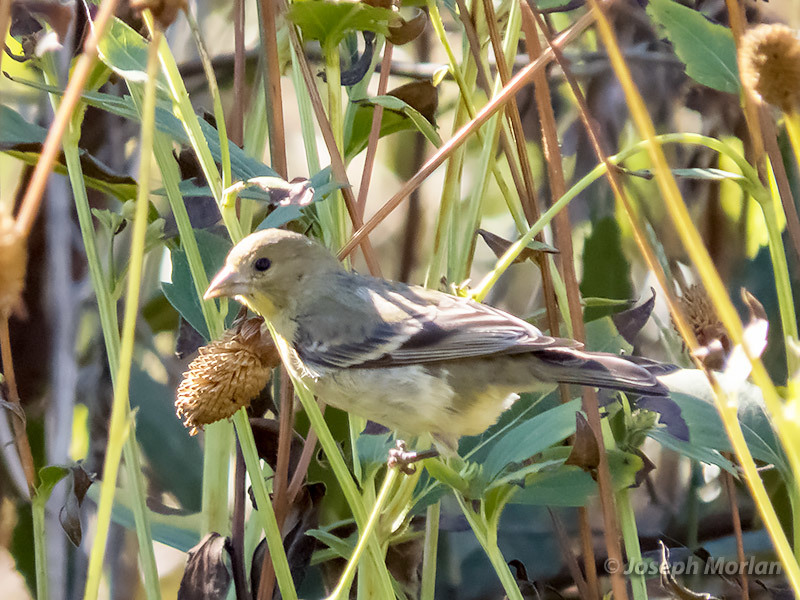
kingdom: Animalia
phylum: Chordata
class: Aves
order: Passeriformes
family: Fringillidae
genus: Spinus
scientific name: Spinus psaltria
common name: Lesser goldfinch
